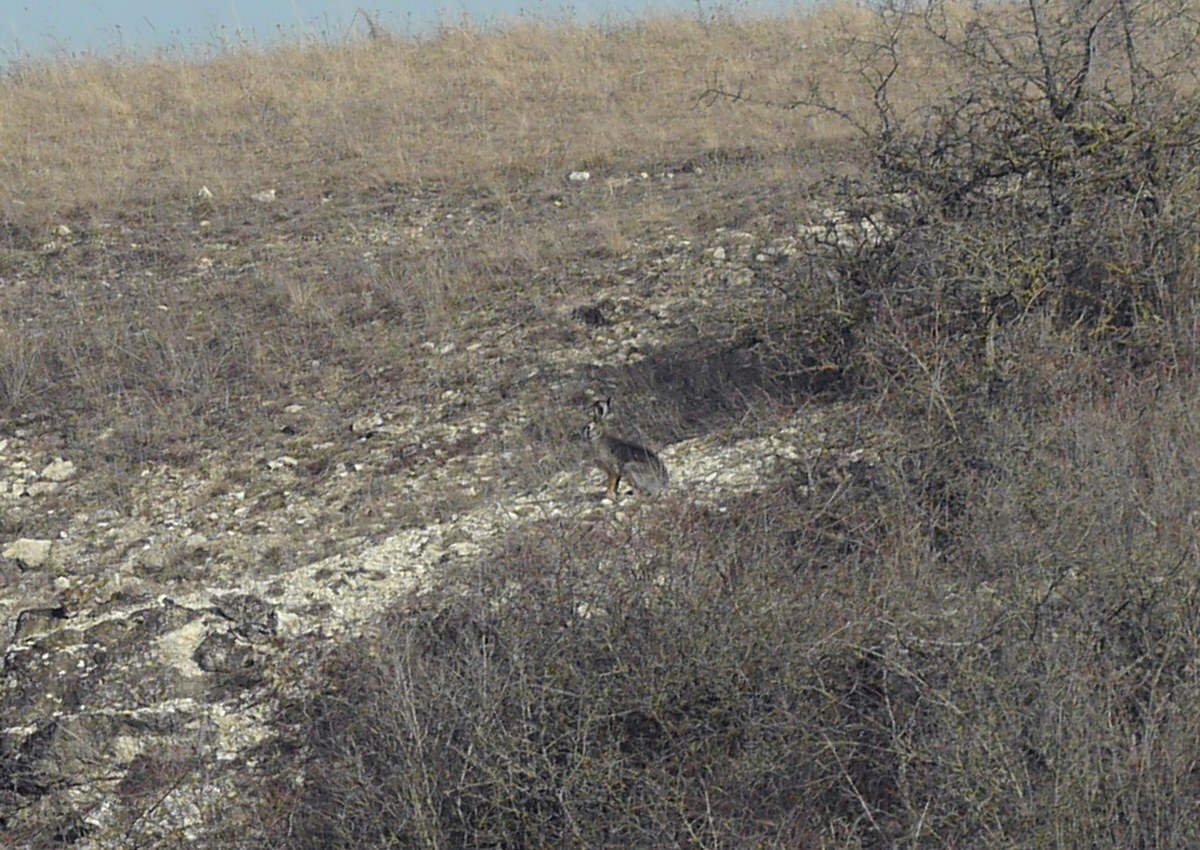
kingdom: Animalia
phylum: Chordata
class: Mammalia
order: Lagomorpha
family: Leporidae
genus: Lepus
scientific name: Lepus europaeus
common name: European hare
